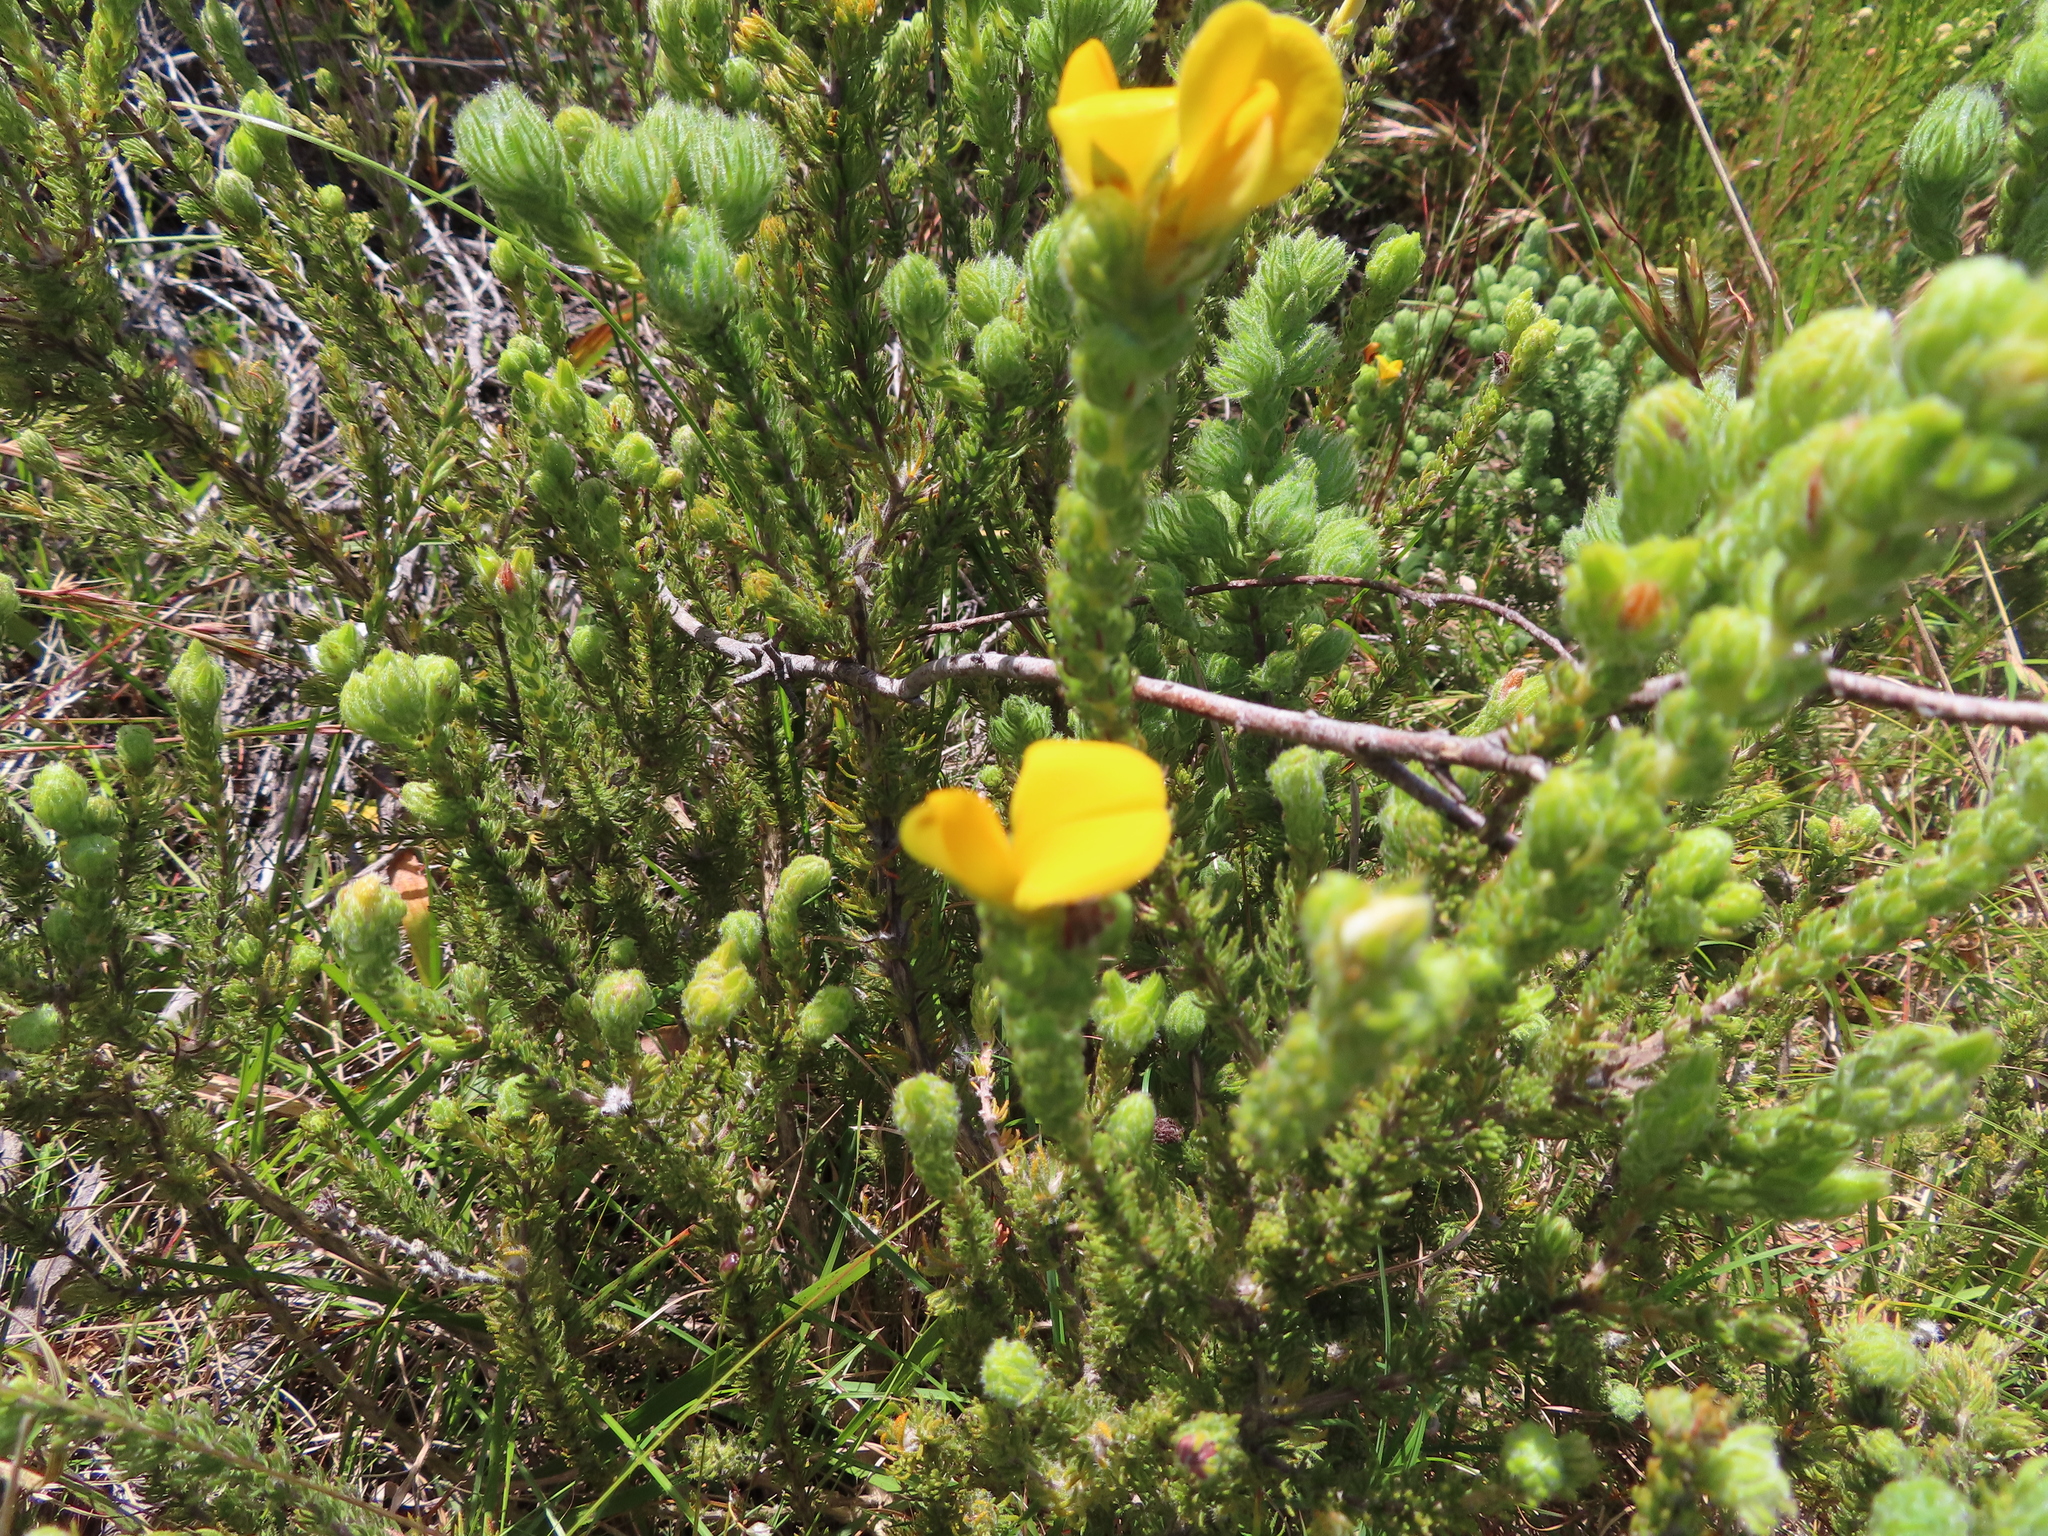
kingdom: Plantae
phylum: Tracheophyta
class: Magnoliopsida
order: Fabales
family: Fabaceae
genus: Aspalathus
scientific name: Aspalathus ciliaris
